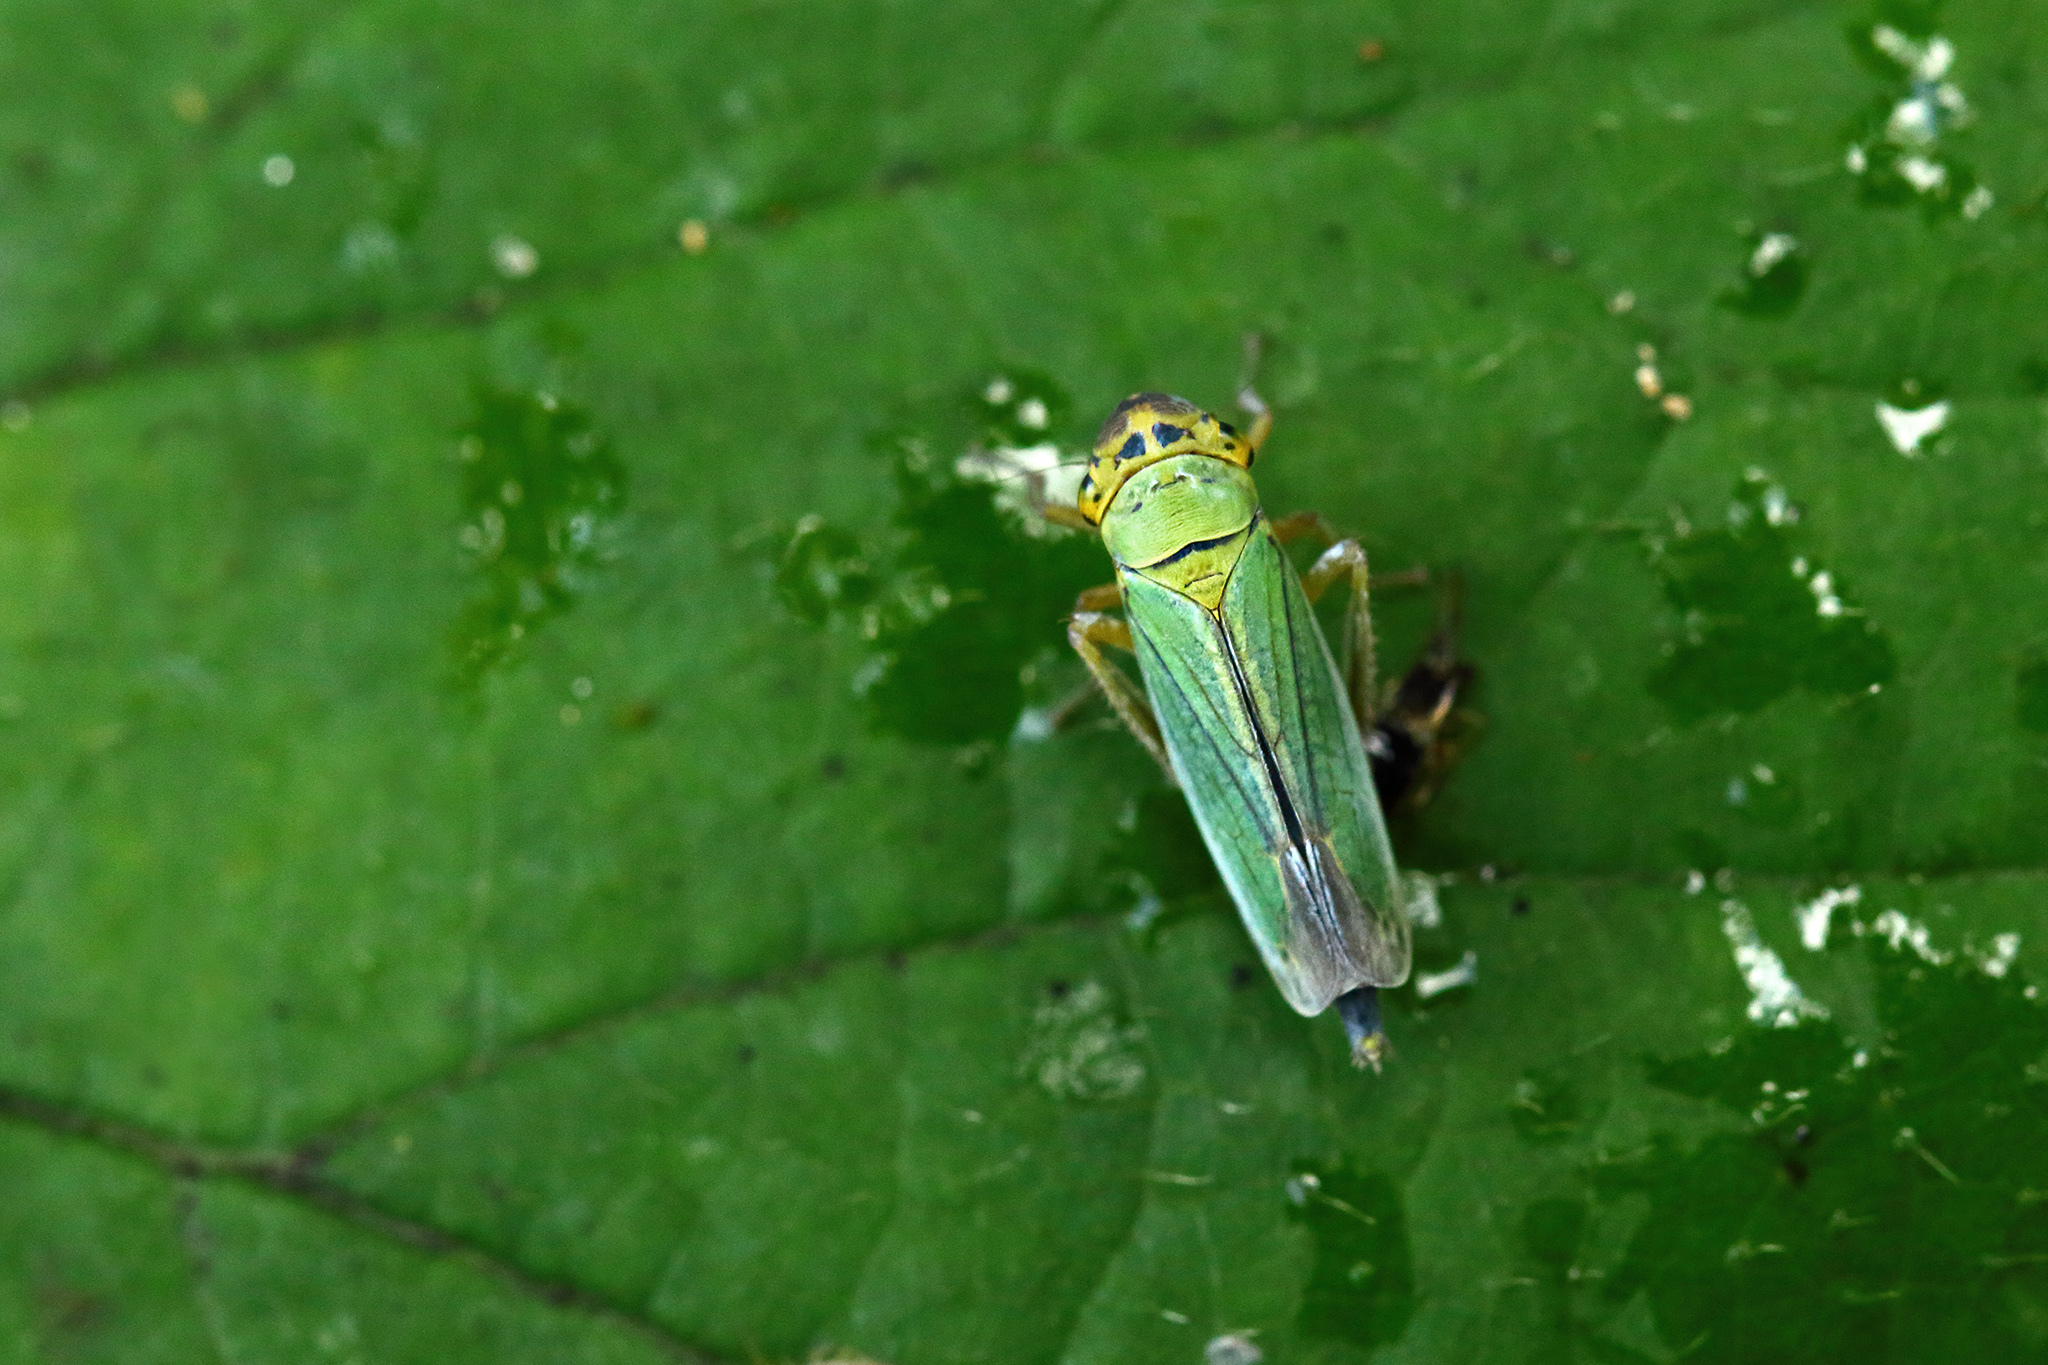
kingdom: Animalia
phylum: Arthropoda
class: Insecta
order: Hemiptera
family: Cicadellidae
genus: Cicadella
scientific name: Cicadella viridis
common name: Leafhopper
